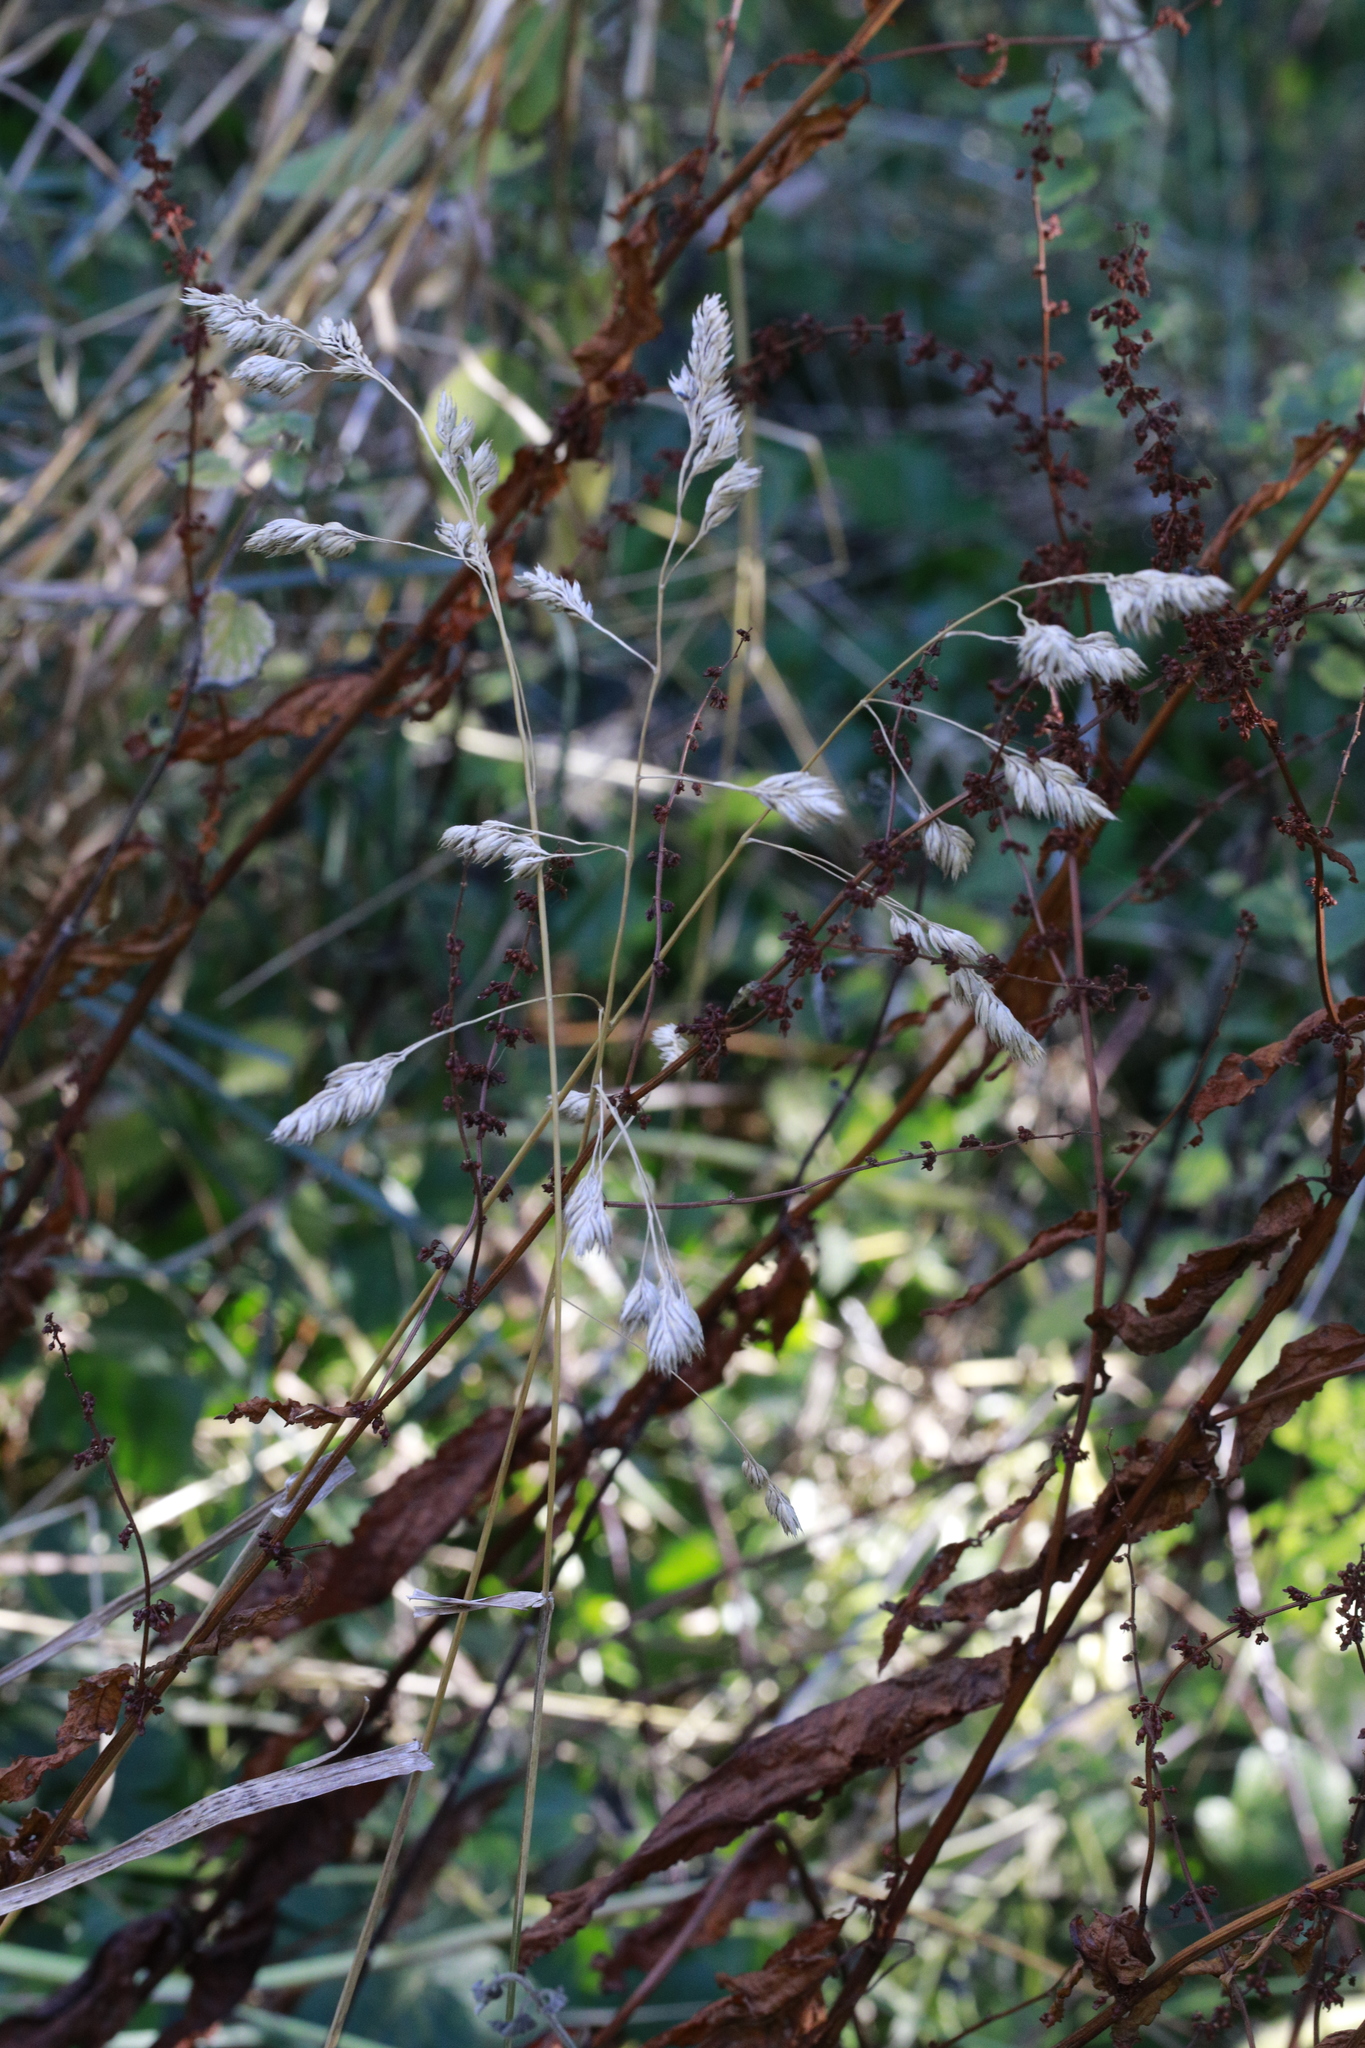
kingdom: Plantae
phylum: Tracheophyta
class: Liliopsida
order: Poales
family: Poaceae
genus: Dactylis
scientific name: Dactylis glomerata
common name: Orchardgrass
